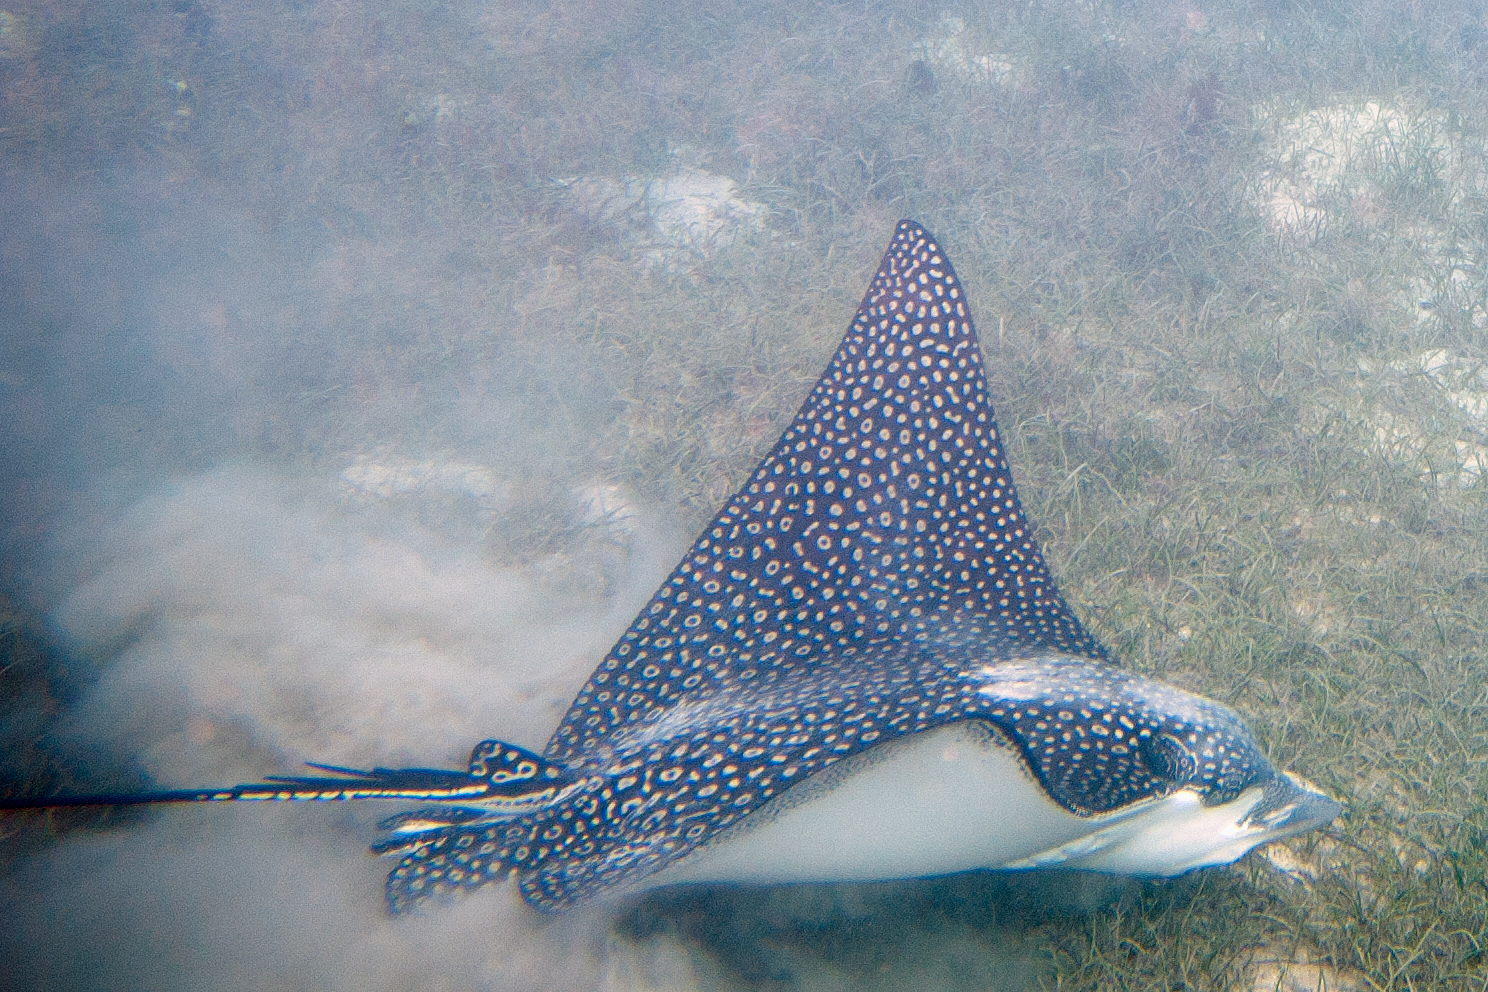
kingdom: Animalia
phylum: Chordata
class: Elasmobranchii
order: Myliobatiformes
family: Myliobatidae
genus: Aetobatus
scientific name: Aetobatus ocellatus
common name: Ocellated eagle ray
